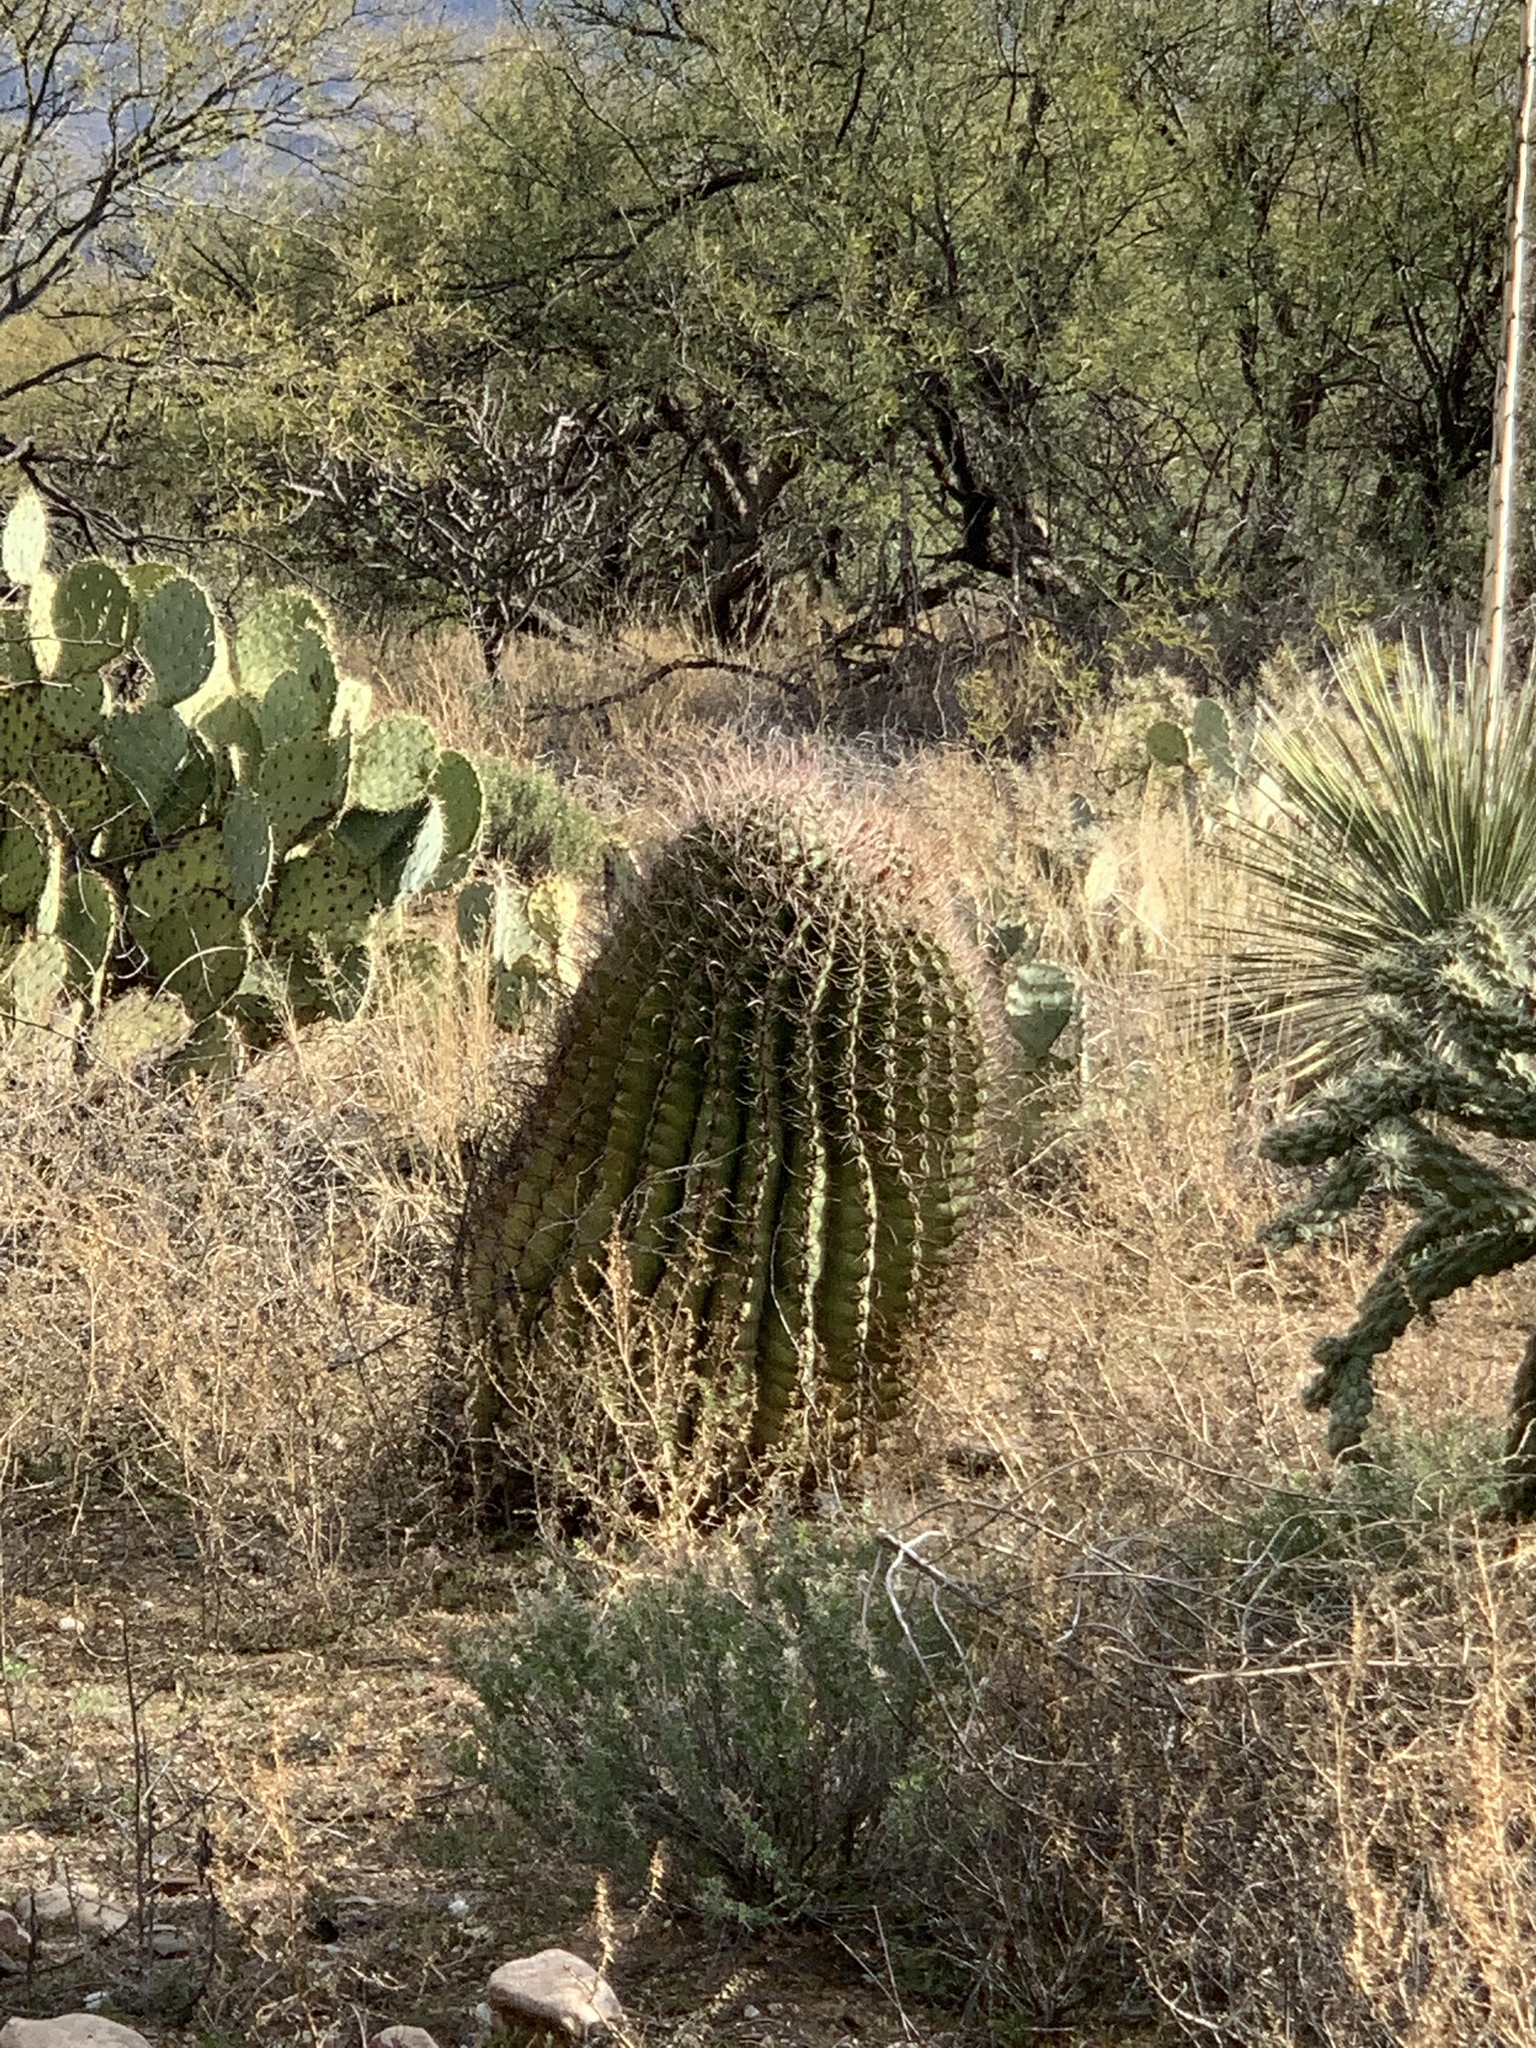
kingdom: Plantae
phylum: Tracheophyta
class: Magnoliopsida
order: Caryophyllales
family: Cactaceae
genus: Ferocactus
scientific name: Ferocactus wislizeni
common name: Candy barrel cactus
